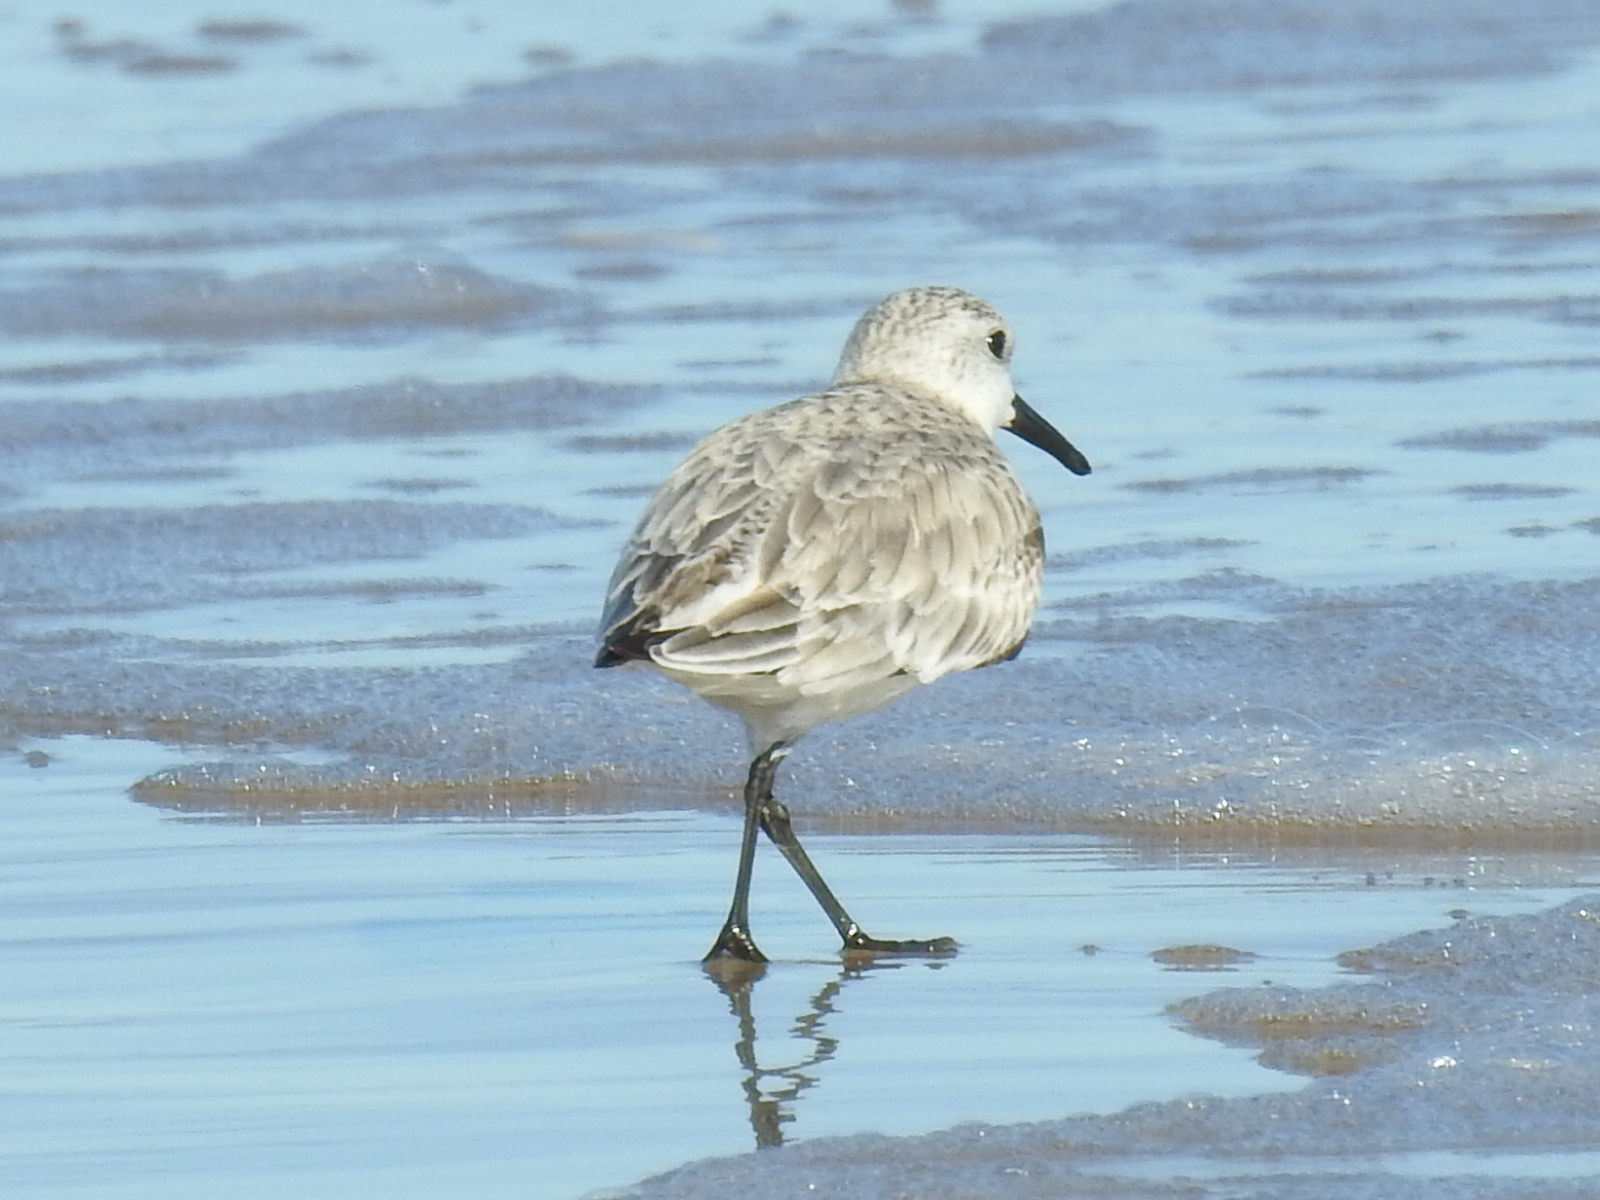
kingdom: Animalia
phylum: Chordata
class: Aves
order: Charadriiformes
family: Scolopacidae
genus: Calidris
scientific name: Calidris alba
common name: Sanderling
